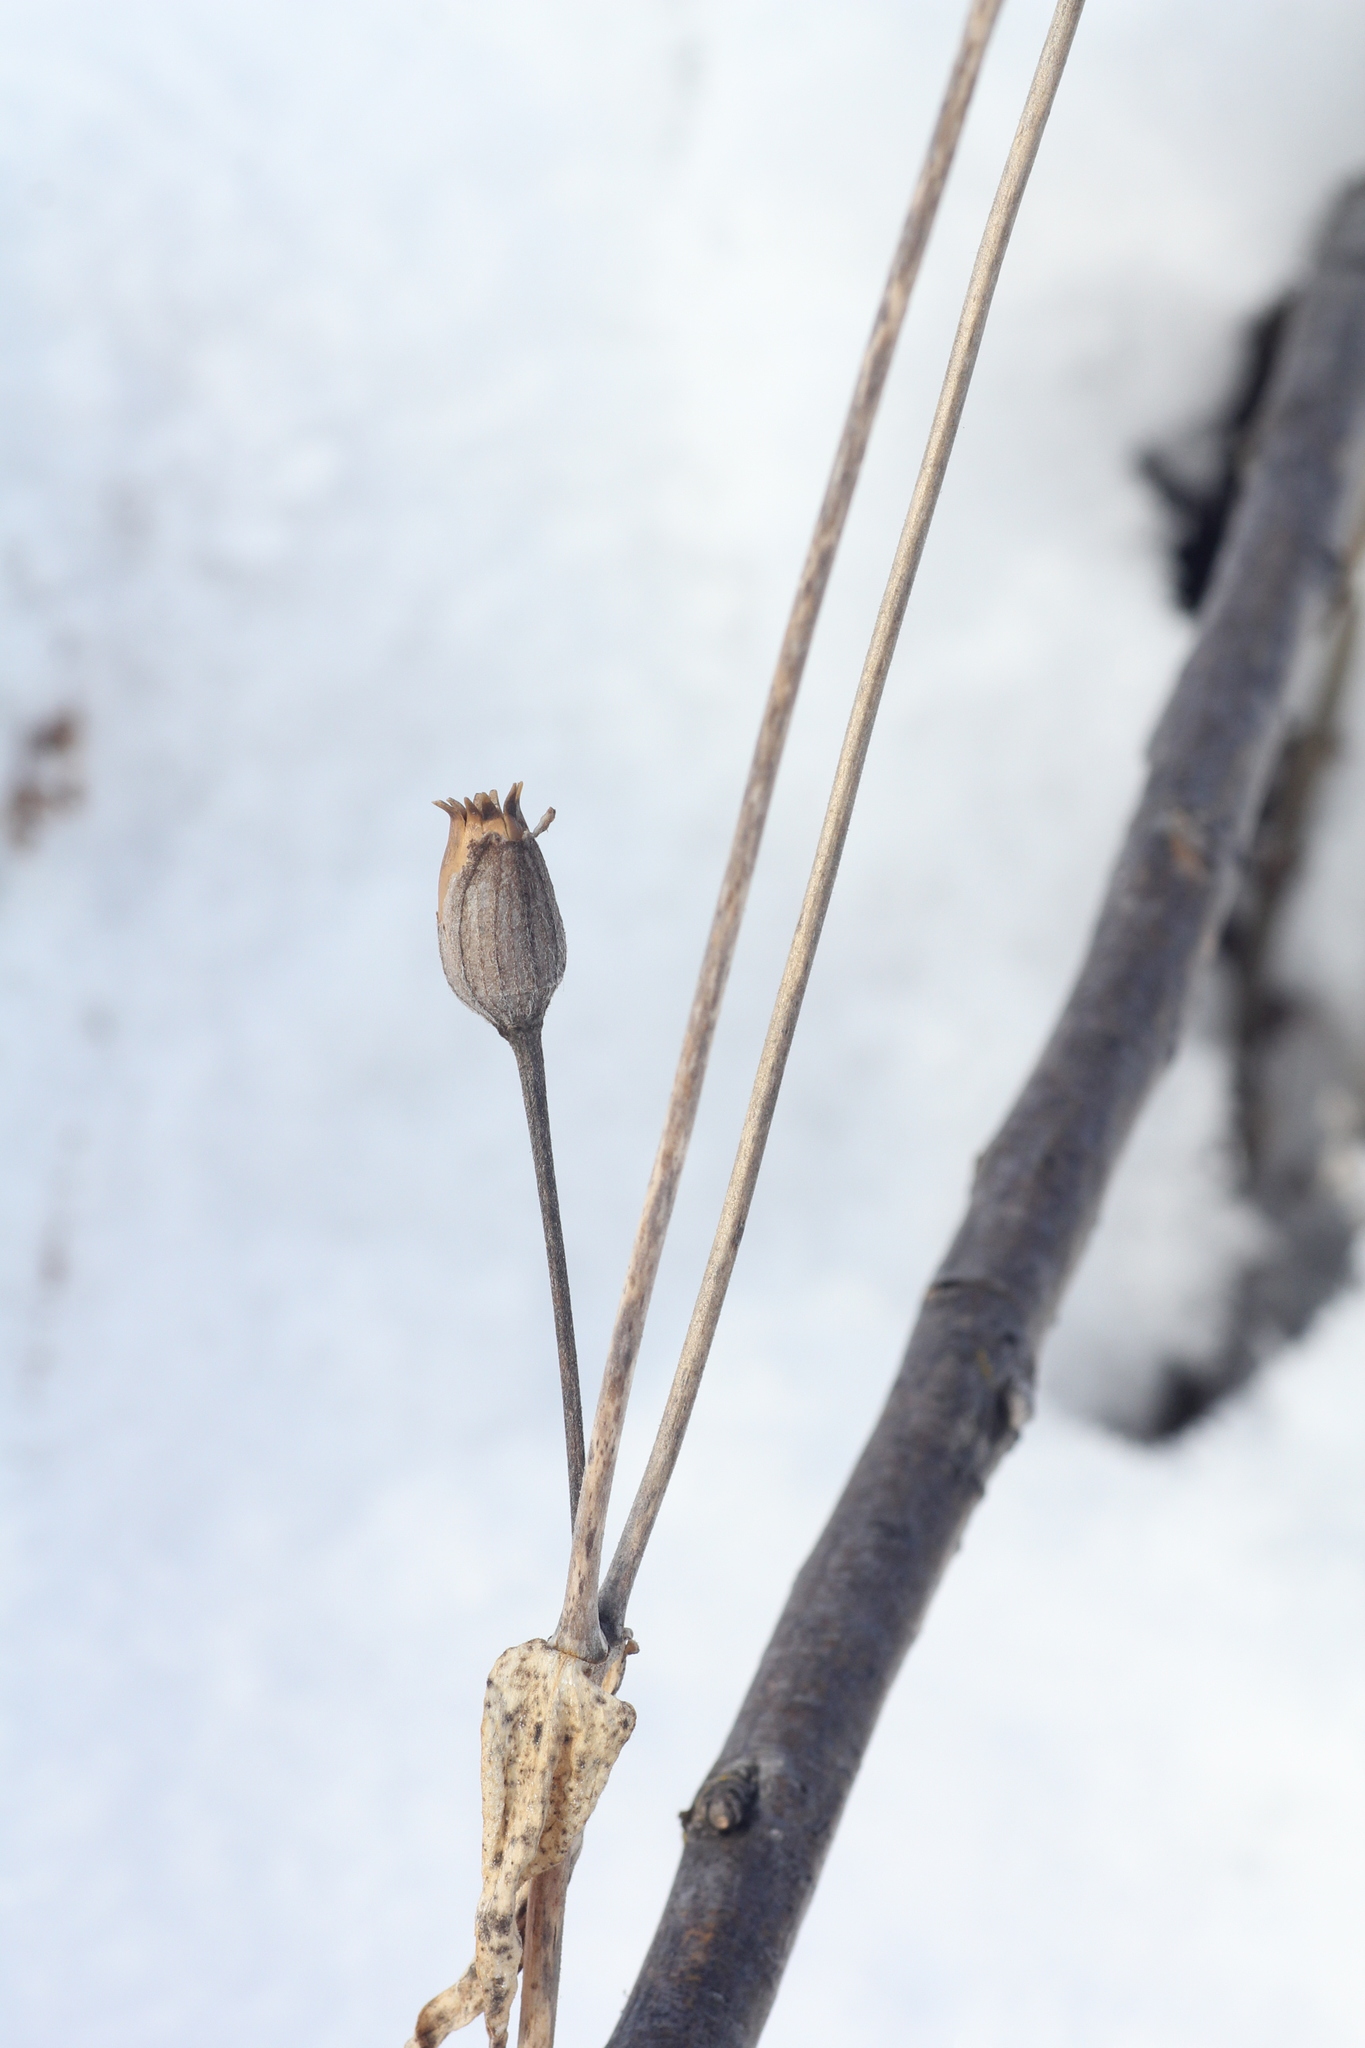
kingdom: Plantae
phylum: Tracheophyta
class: Magnoliopsida
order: Caryophyllales
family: Caryophyllaceae
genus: Silene
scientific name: Silene latifolia
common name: White campion
